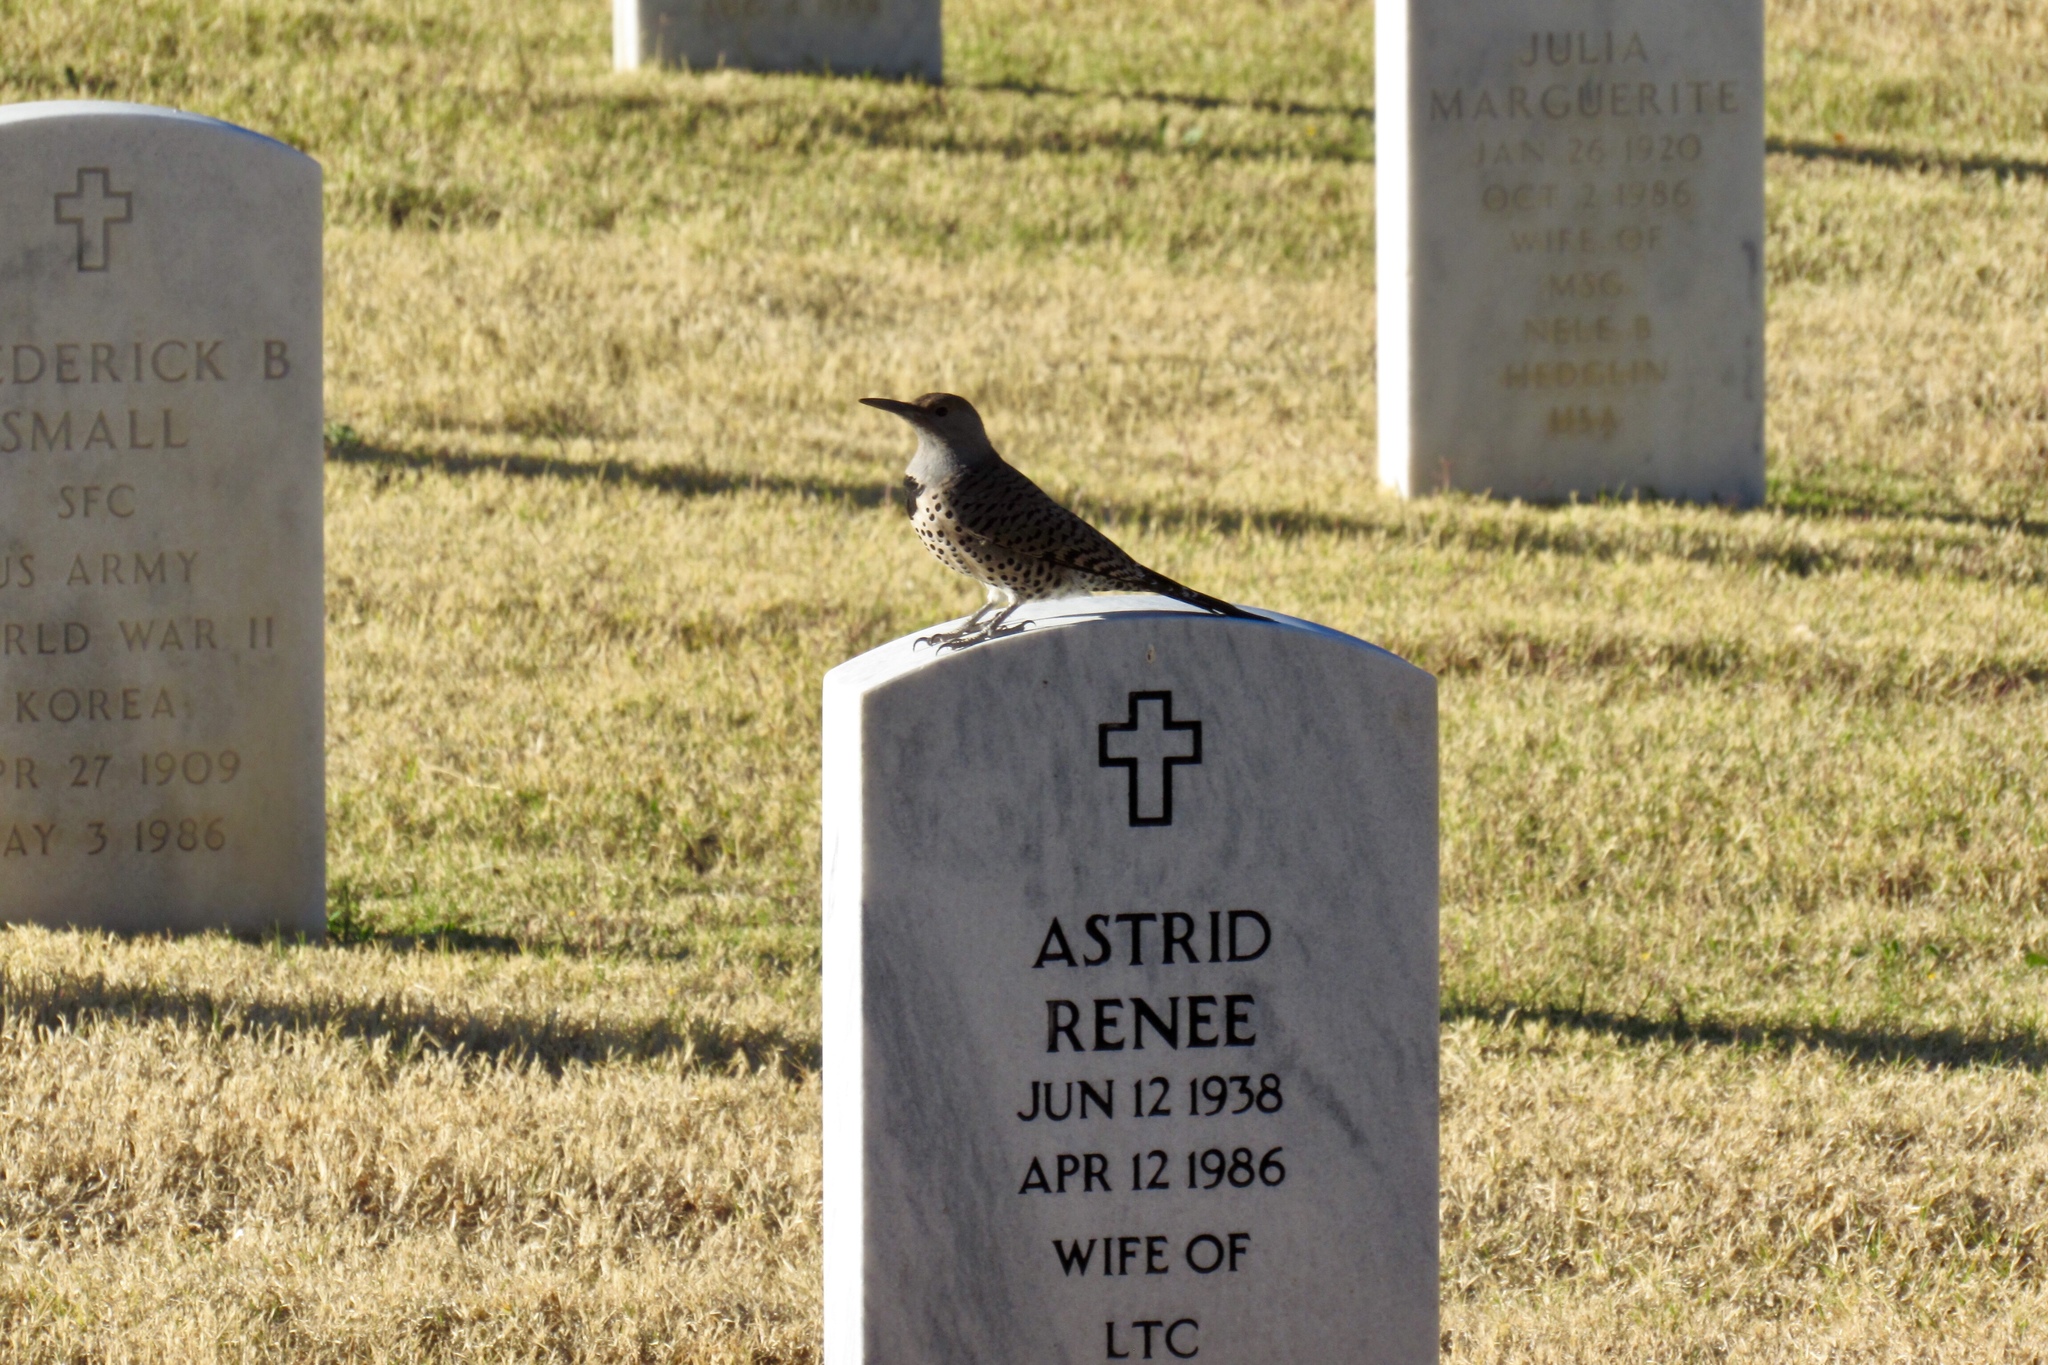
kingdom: Animalia
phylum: Chordata
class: Aves
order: Piciformes
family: Picidae
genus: Colaptes
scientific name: Colaptes auratus
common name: Northern flicker
